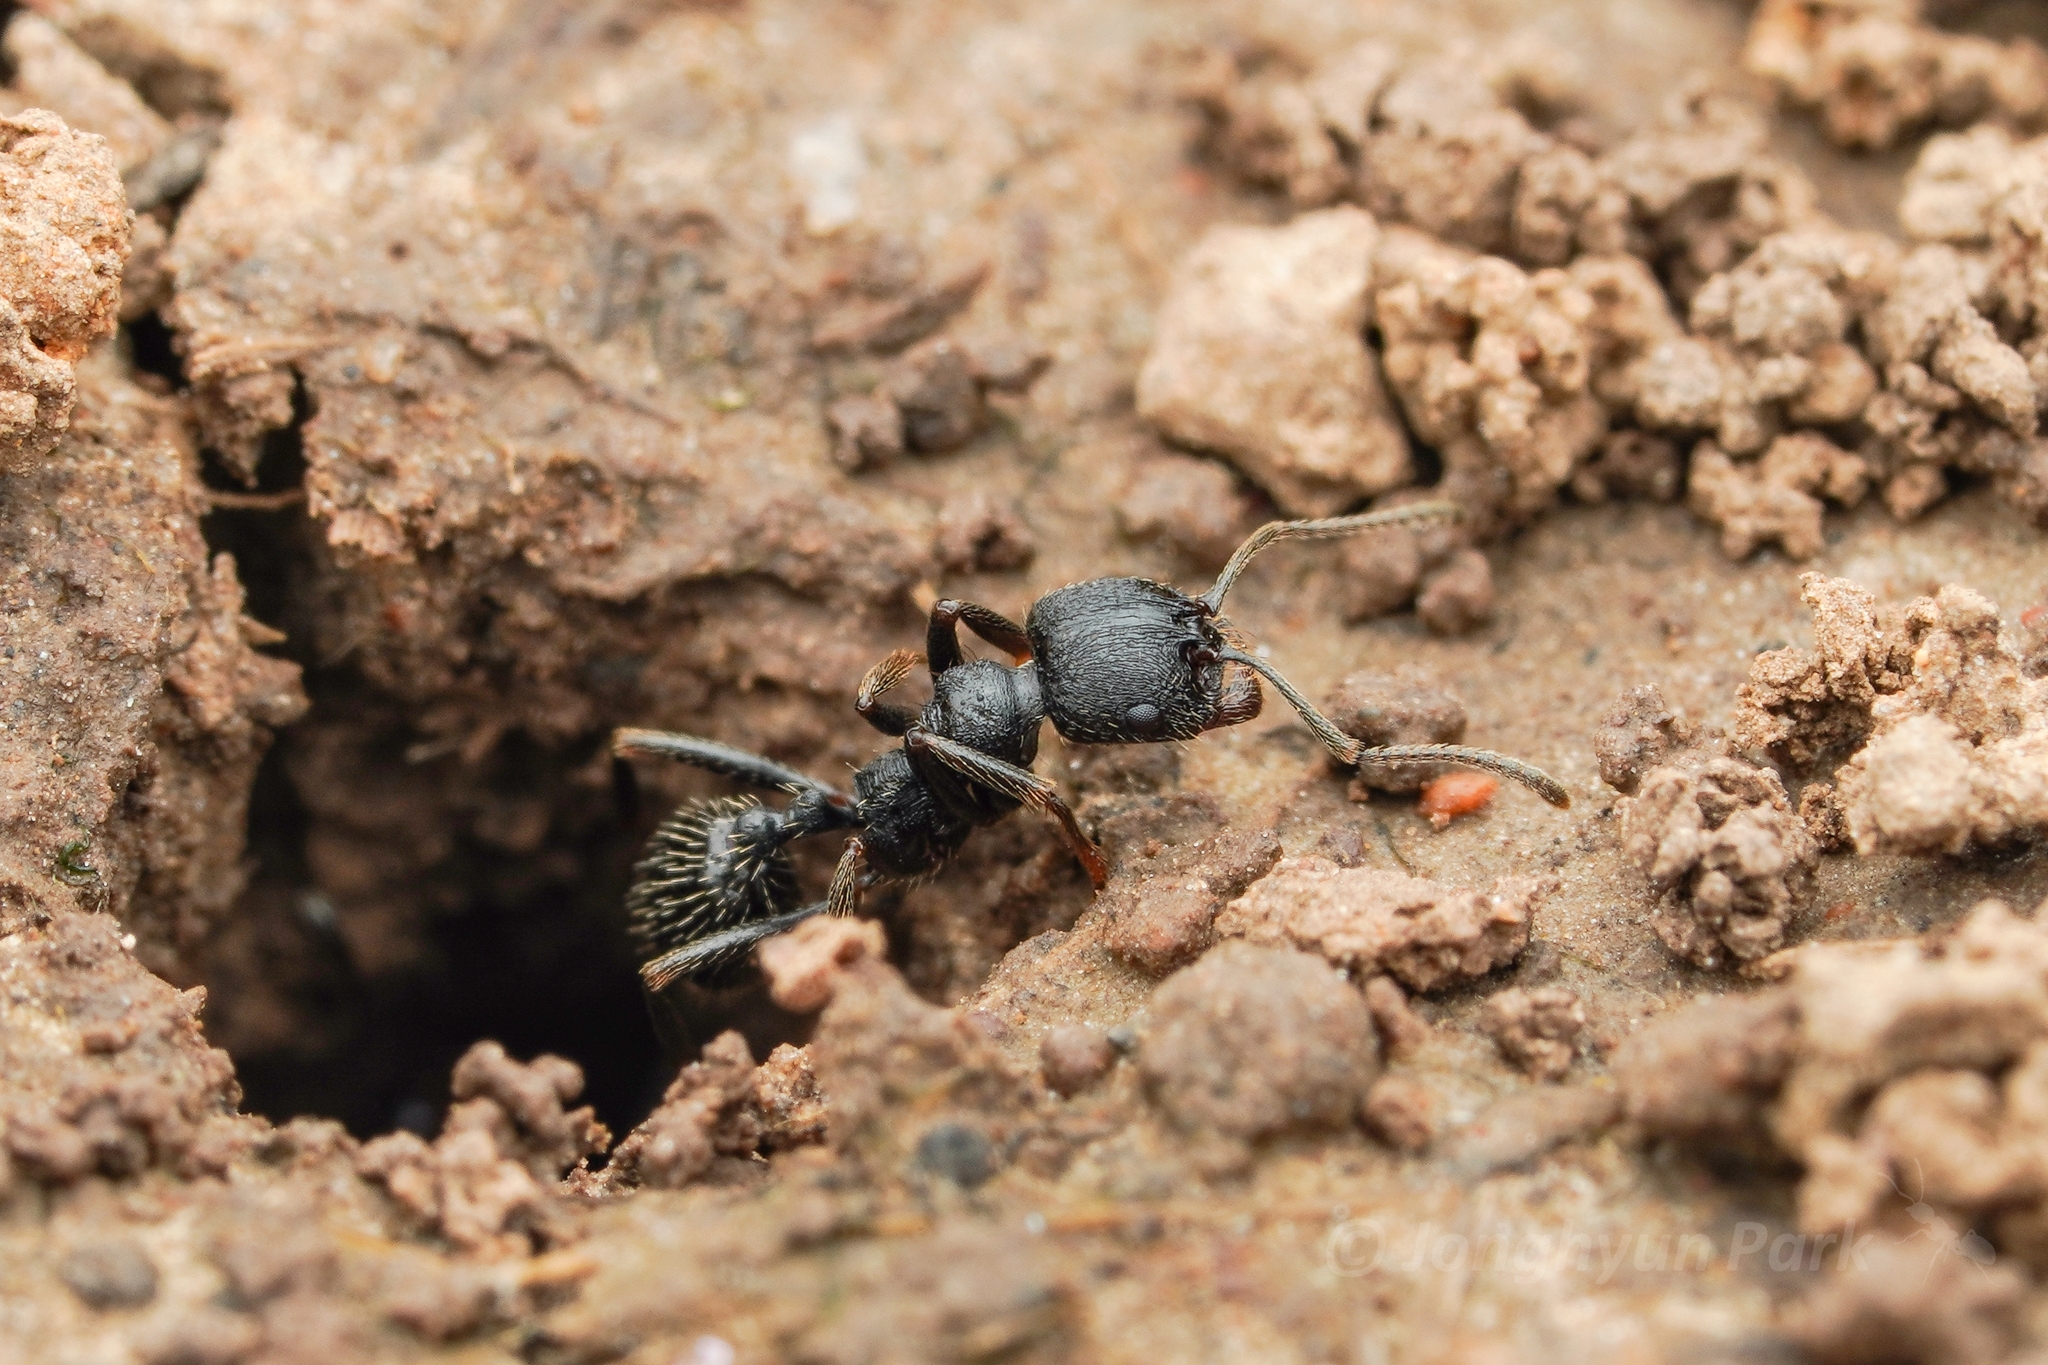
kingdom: Animalia
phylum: Arthropoda
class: Insecta
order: Hymenoptera
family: Formicidae
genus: Messor
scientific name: Messor aciculatus
